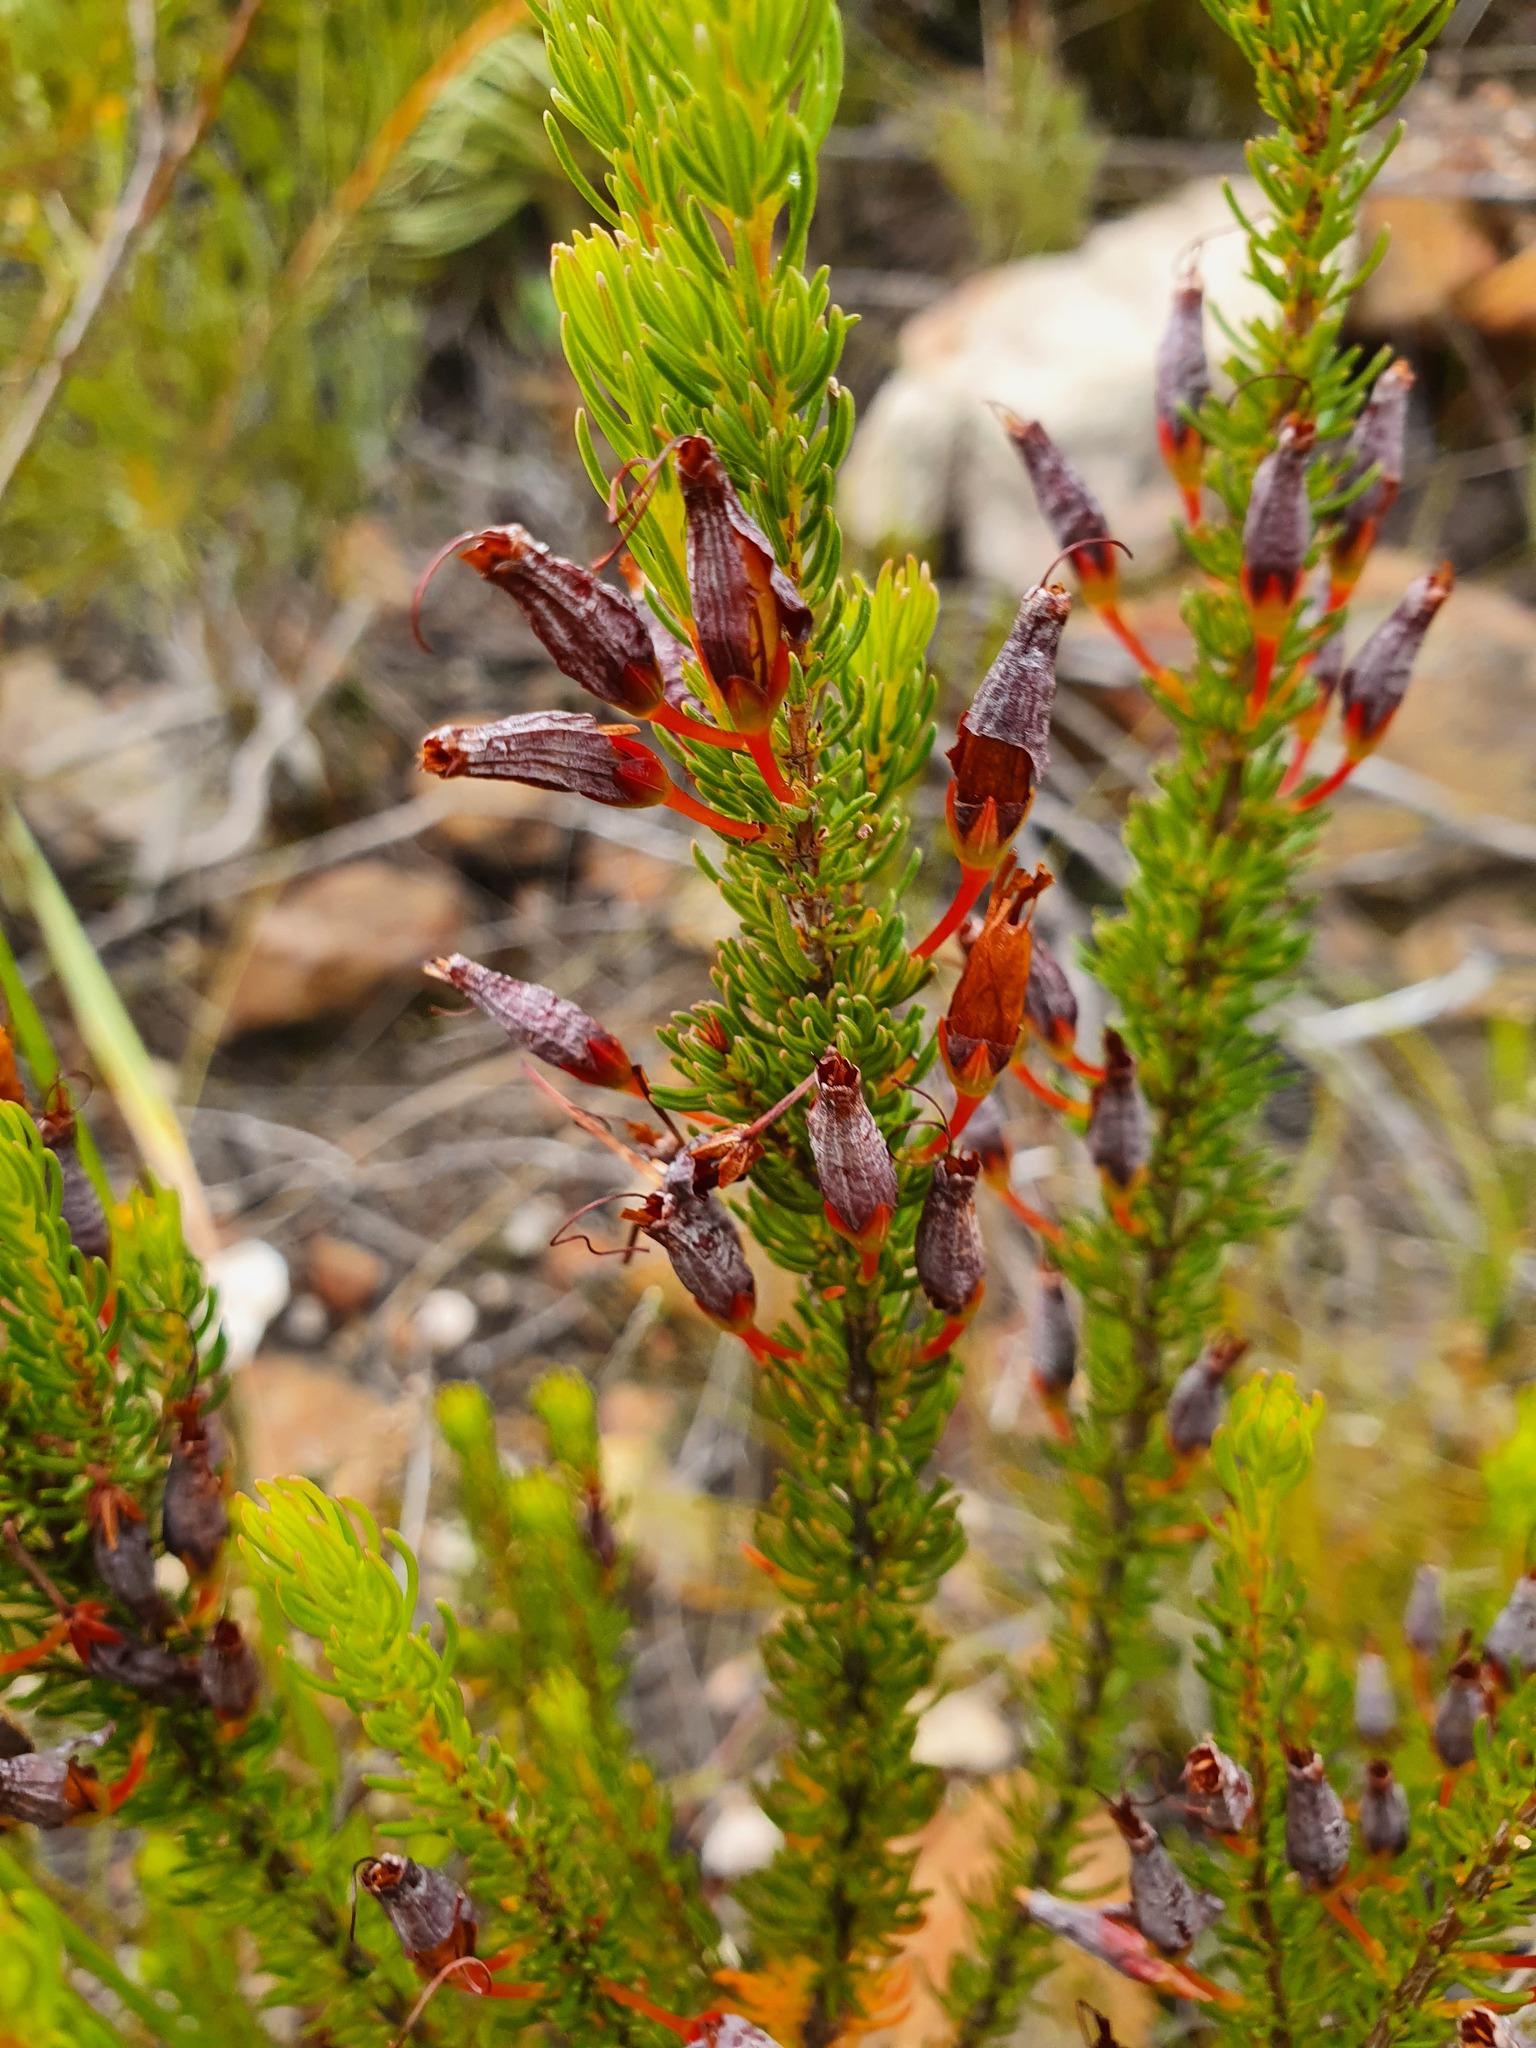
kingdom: Plantae
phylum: Tracheophyta
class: Magnoliopsida
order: Ericales
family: Ericaceae
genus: Erica
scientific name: Erica plukenetii
